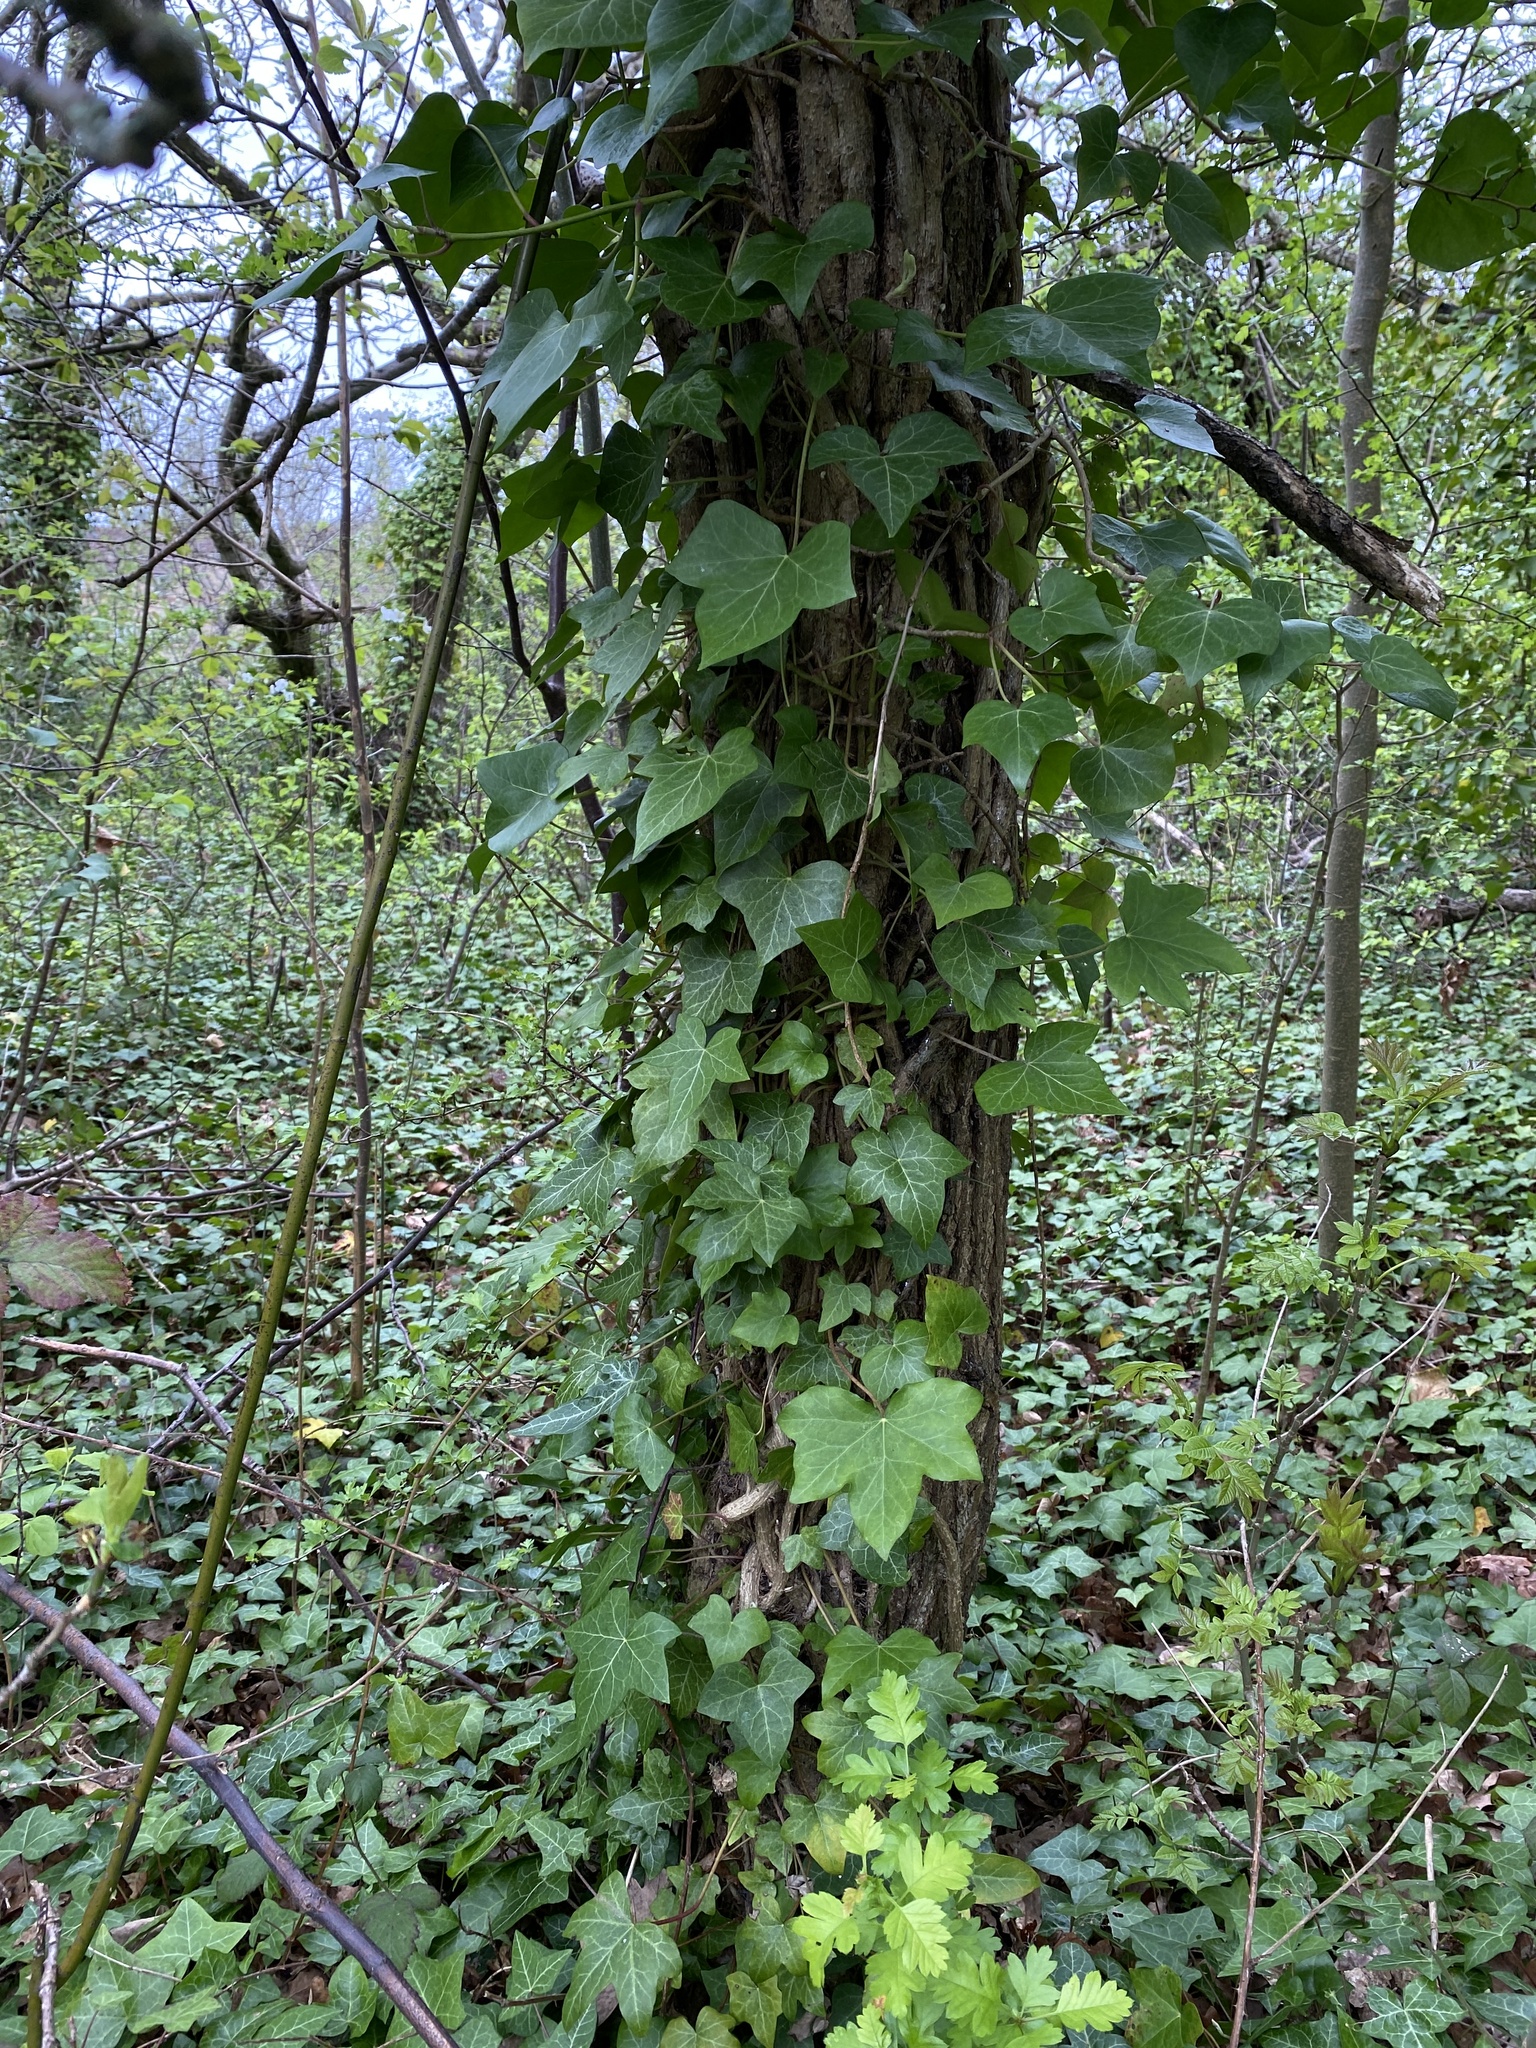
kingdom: Plantae
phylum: Tracheophyta
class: Magnoliopsida
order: Apiales
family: Araliaceae
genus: Hedera
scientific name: Hedera helix
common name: Ivy
